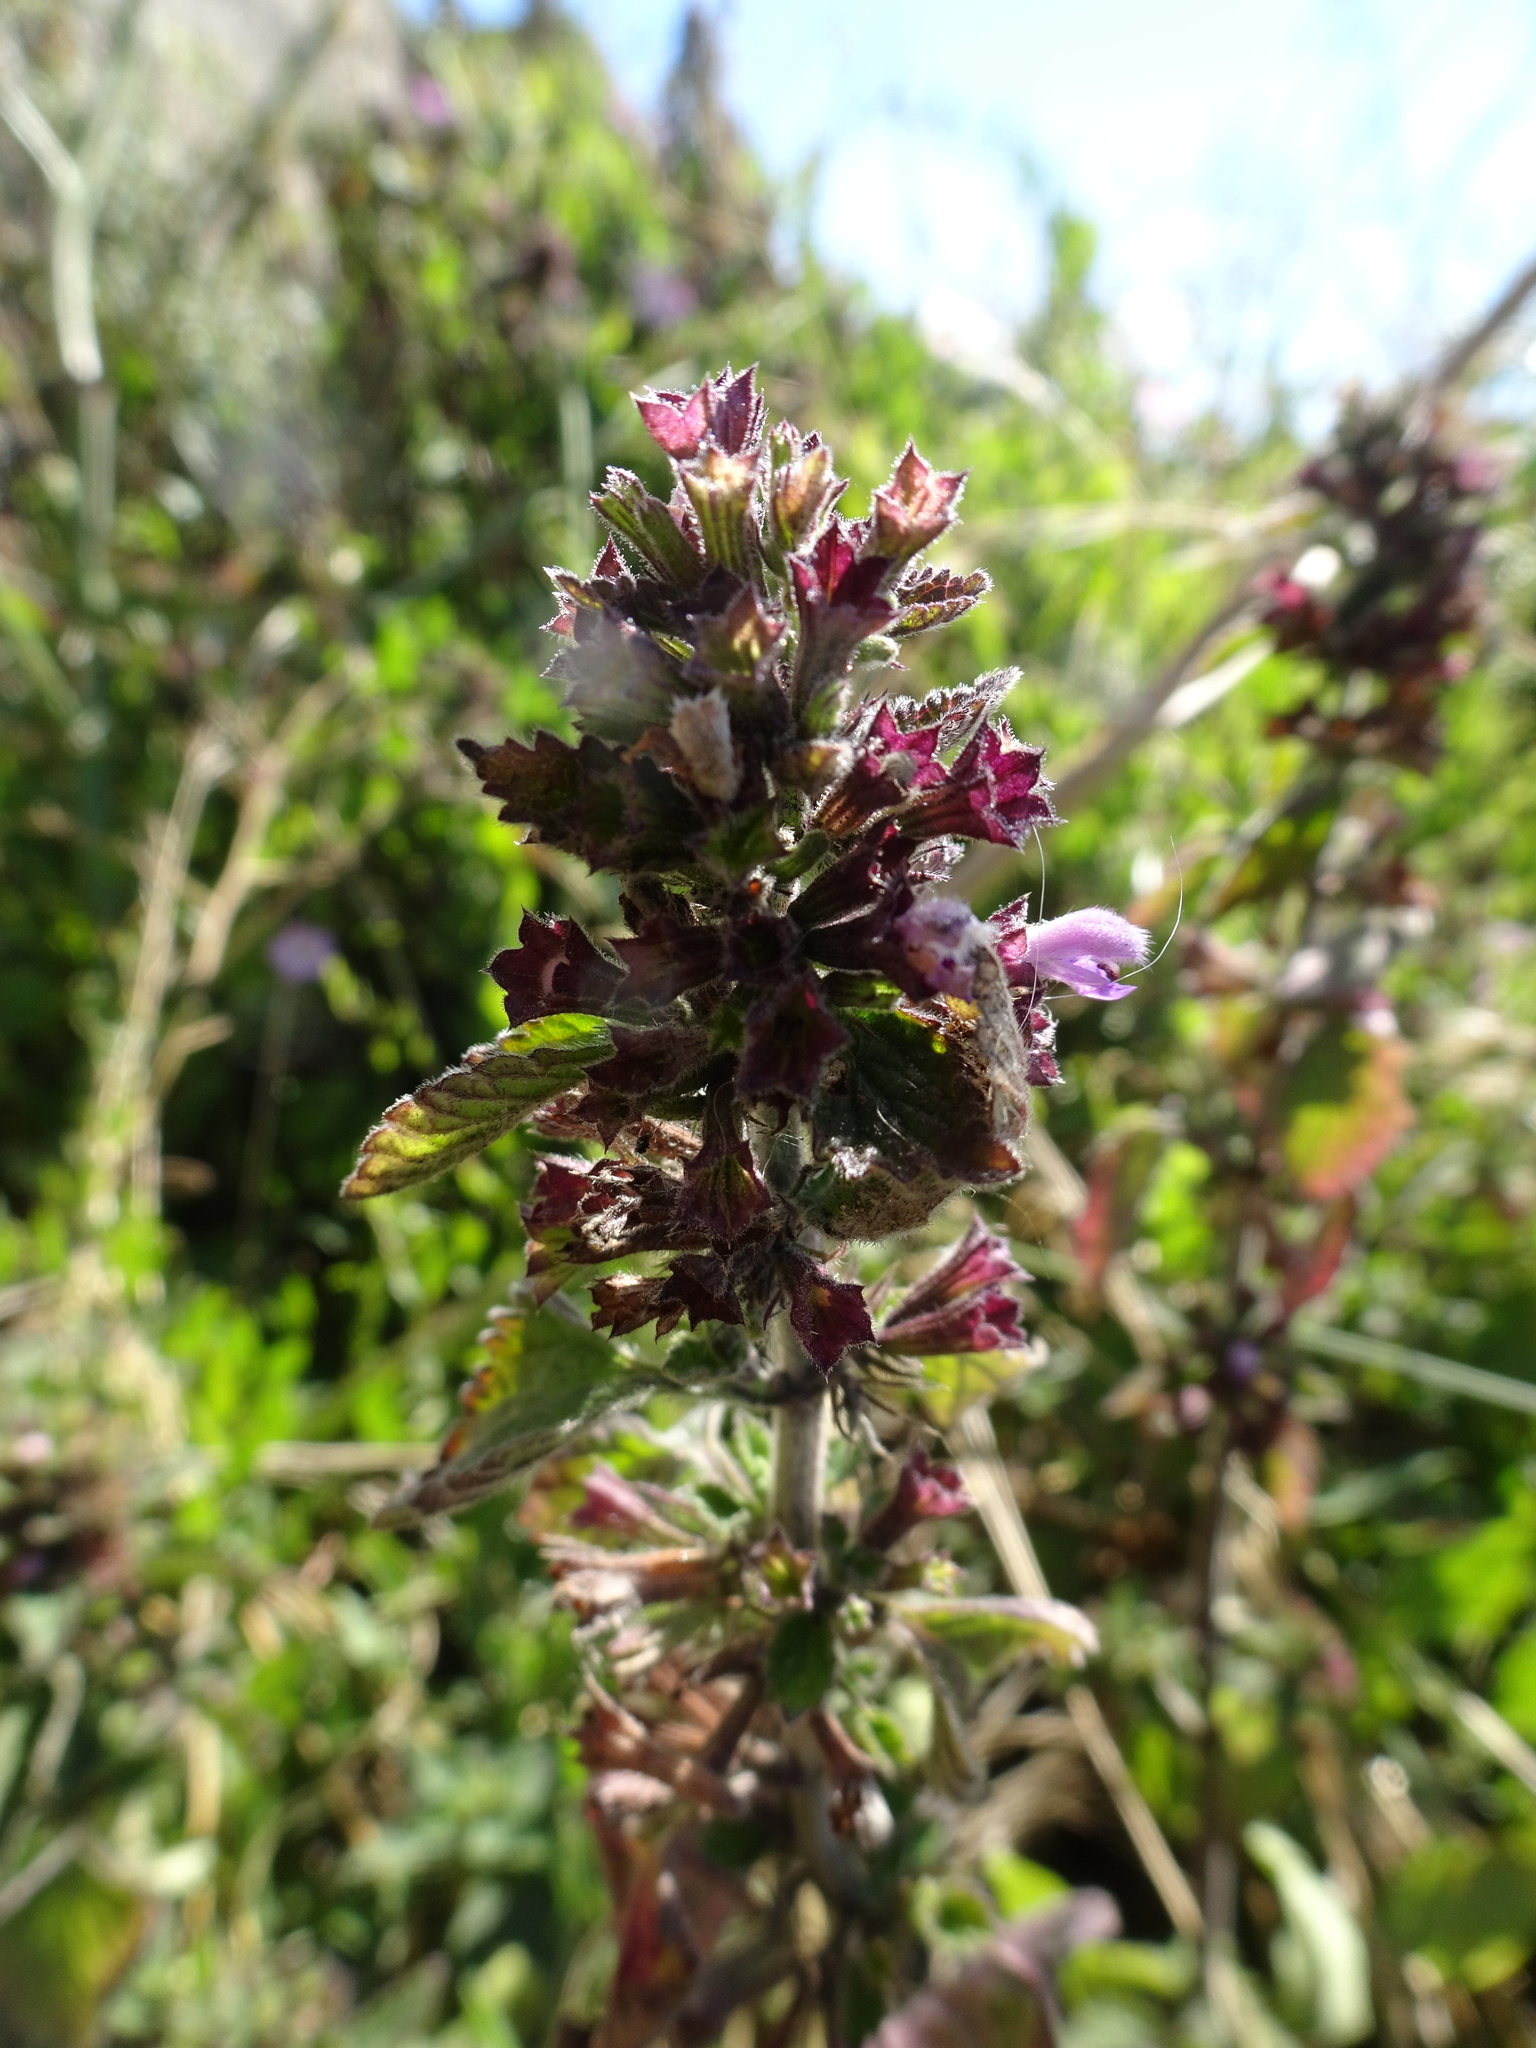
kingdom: Plantae
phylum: Tracheophyta
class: Magnoliopsida
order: Lamiales
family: Lamiaceae
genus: Ballota
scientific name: Ballota nigra
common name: Black horehound
